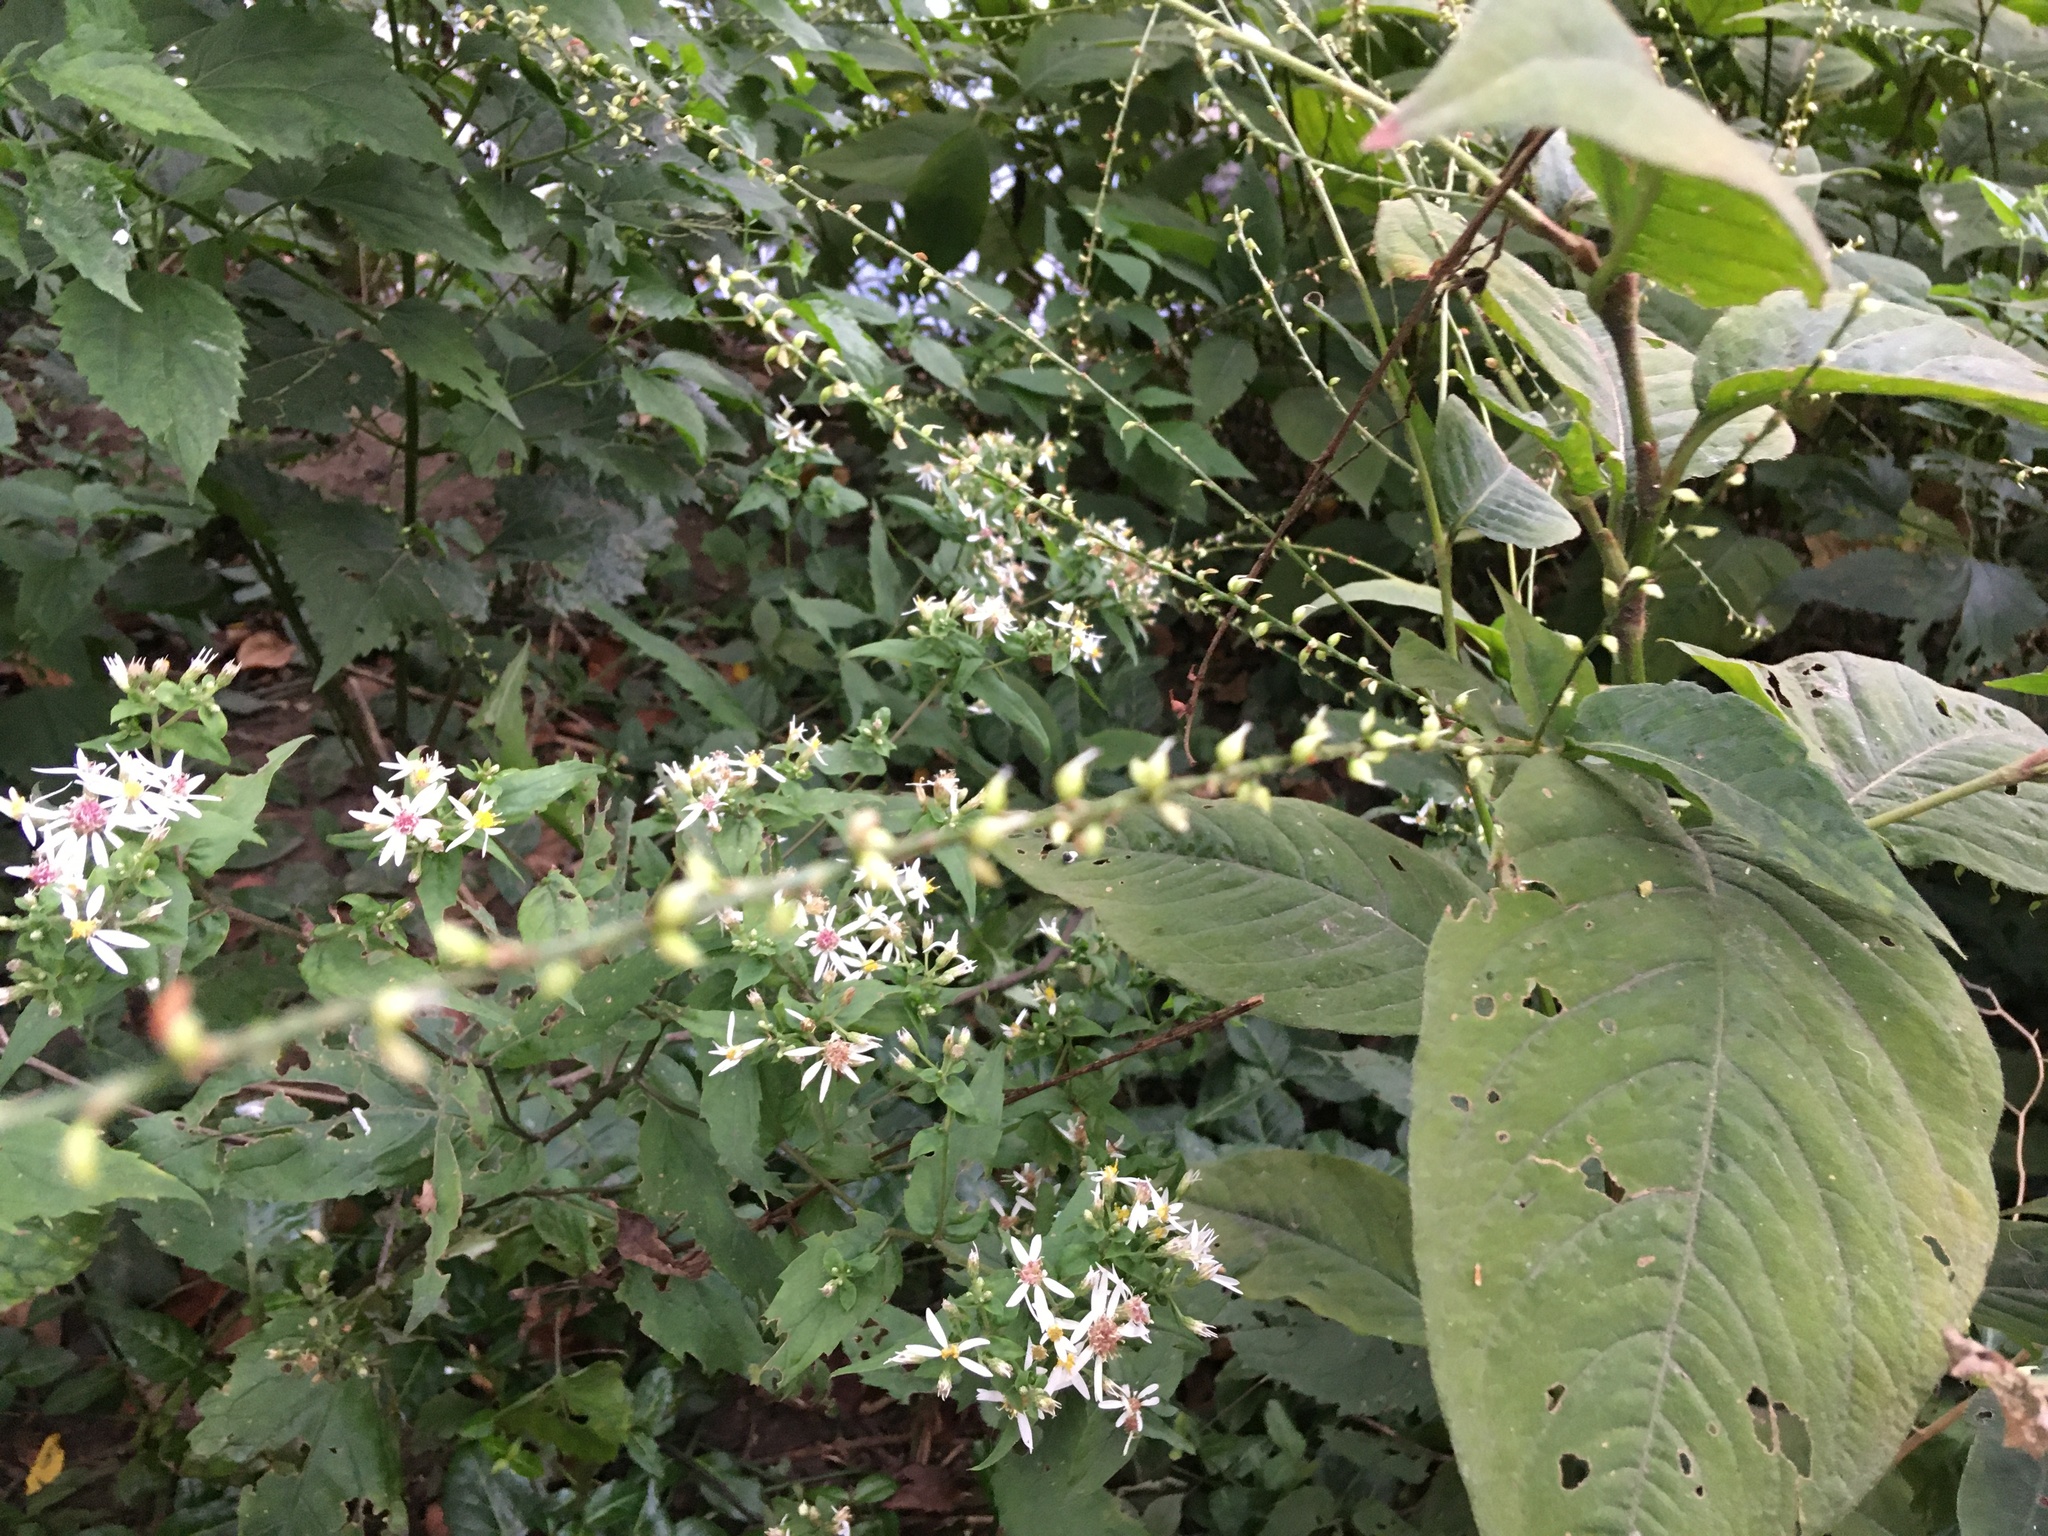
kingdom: Plantae
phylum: Tracheophyta
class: Magnoliopsida
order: Caryophyllales
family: Polygonaceae
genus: Persicaria
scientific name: Persicaria virginiana
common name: Jumpseed
